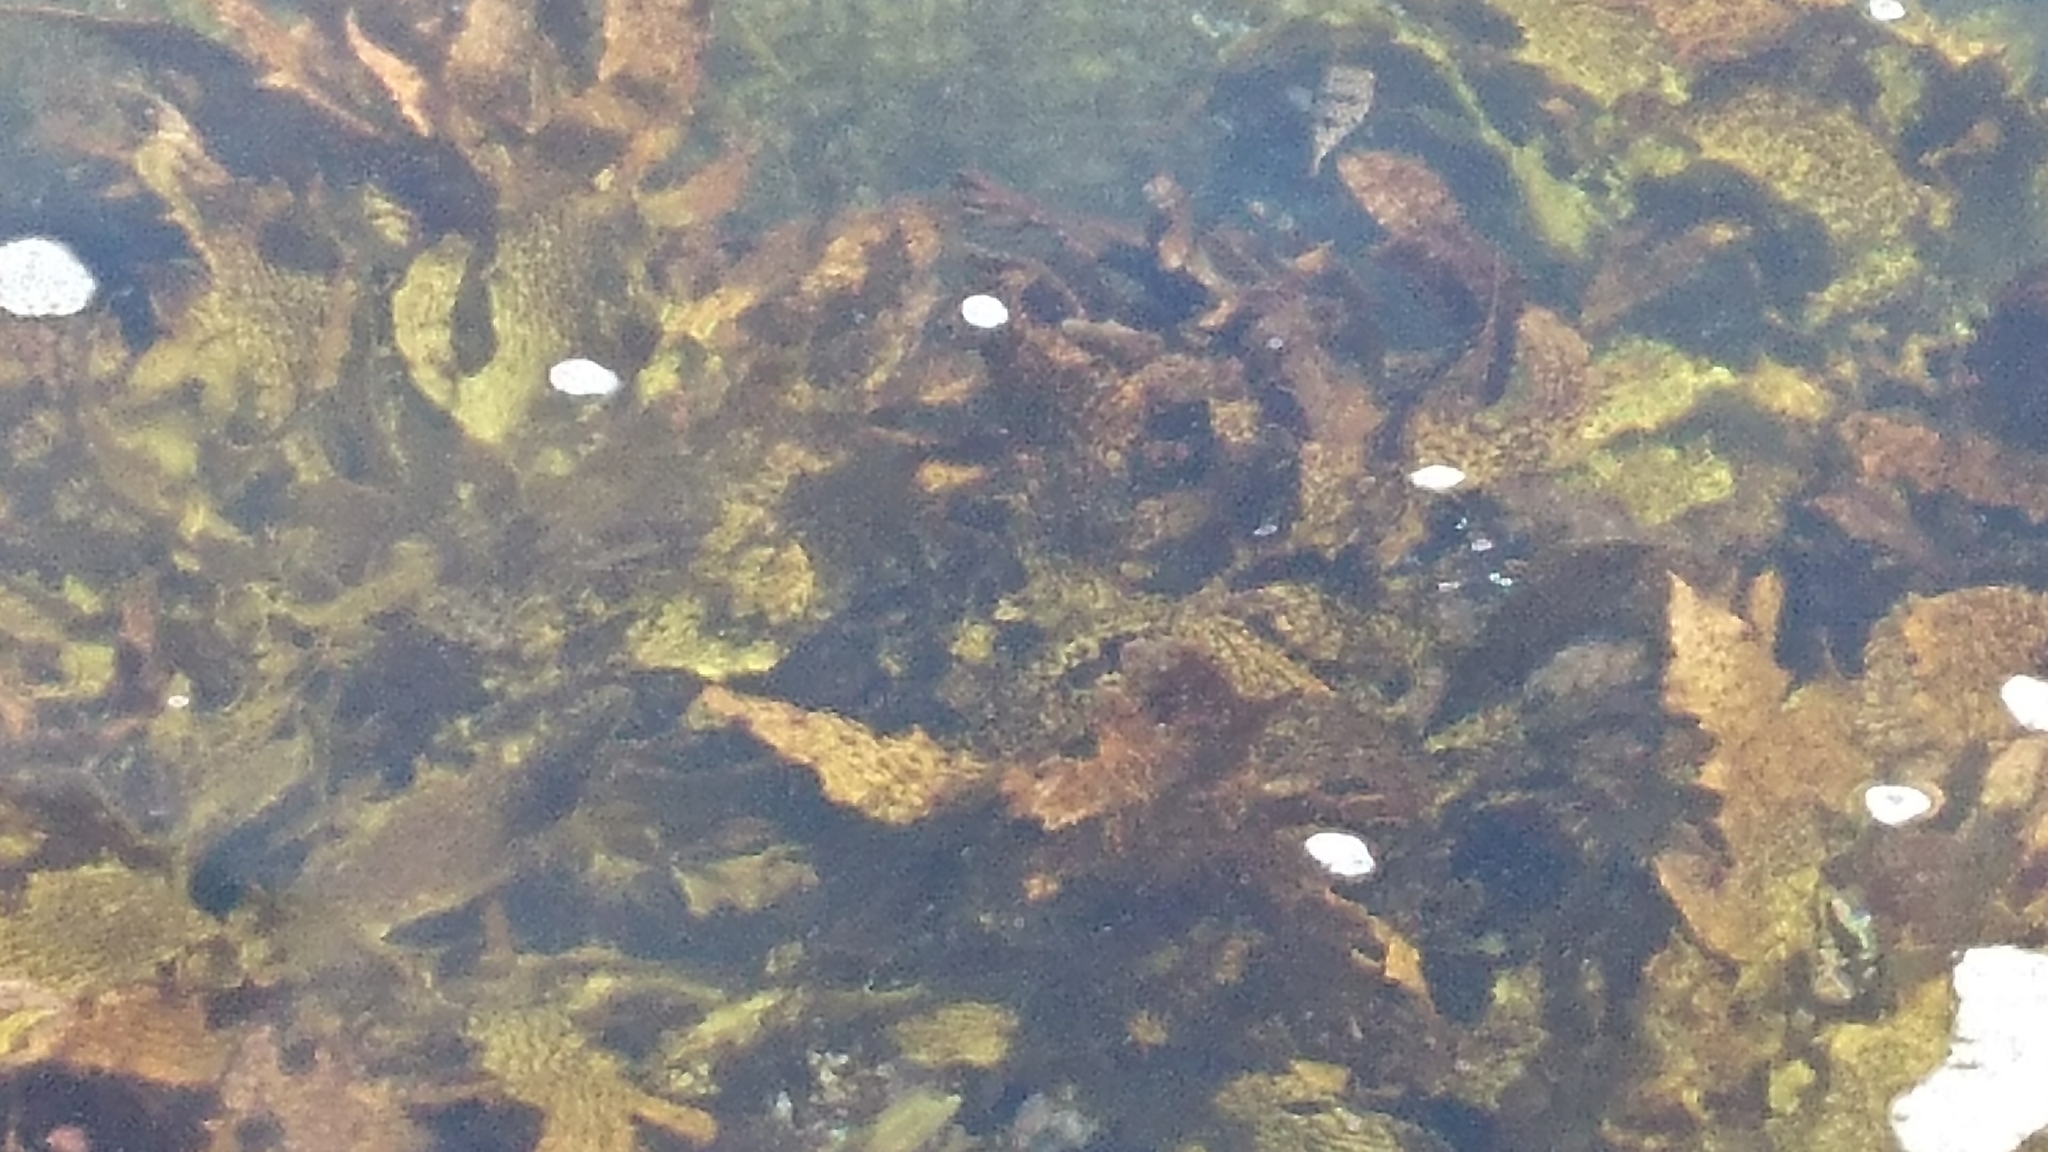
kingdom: Animalia
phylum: Chordata
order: Tetraodontiformes
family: Tetraodontidae
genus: Tetractenos
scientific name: Tetractenos glaber
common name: Smooth toadfish
